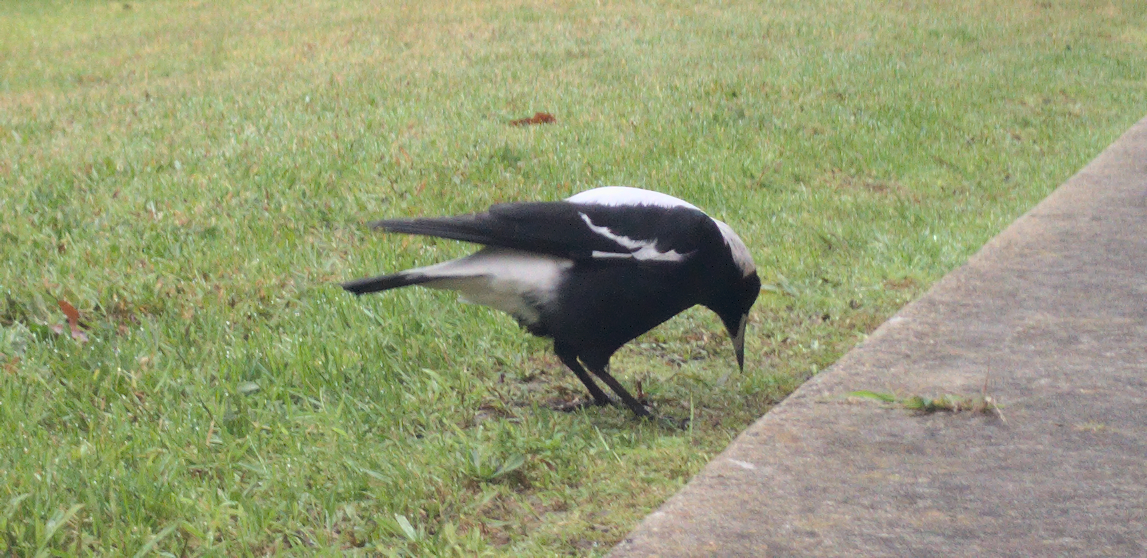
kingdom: Animalia
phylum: Chordata
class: Aves
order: Passeriformes
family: Cracticidae
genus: Gymnorhina
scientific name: Gymnorhina tibicen
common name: Australian magpie
